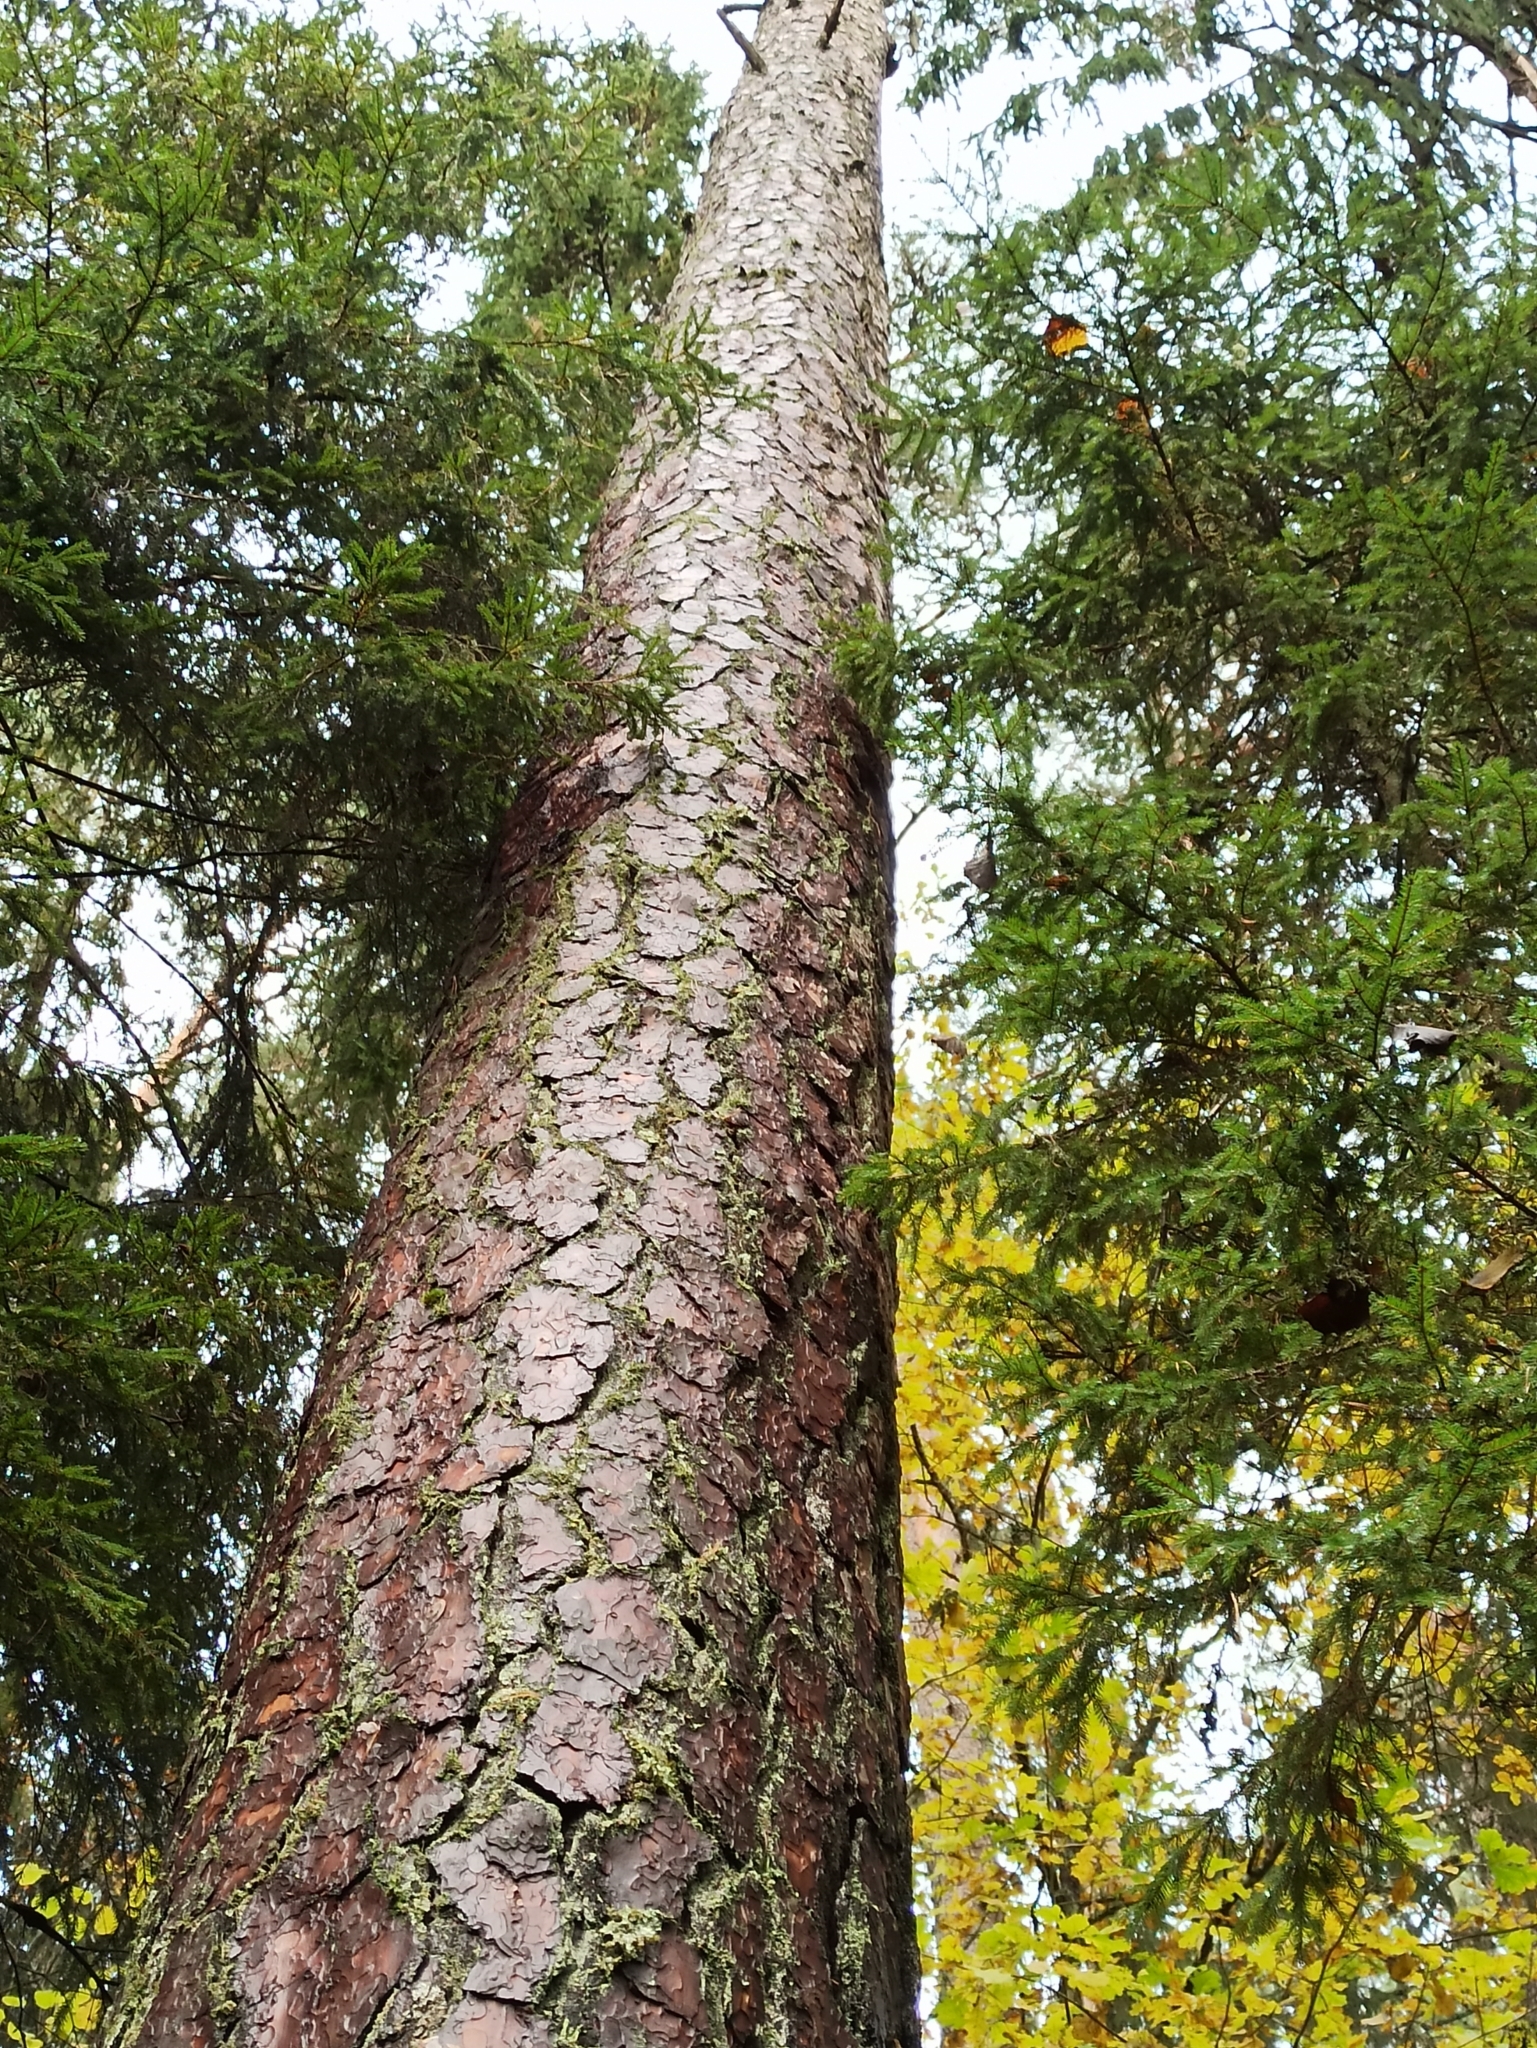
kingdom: Plantae
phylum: Tracheophyta
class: Pinopsida
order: Pinales
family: Pinaceae
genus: Pinus
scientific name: Pinus sylvestris
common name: Scots pine
